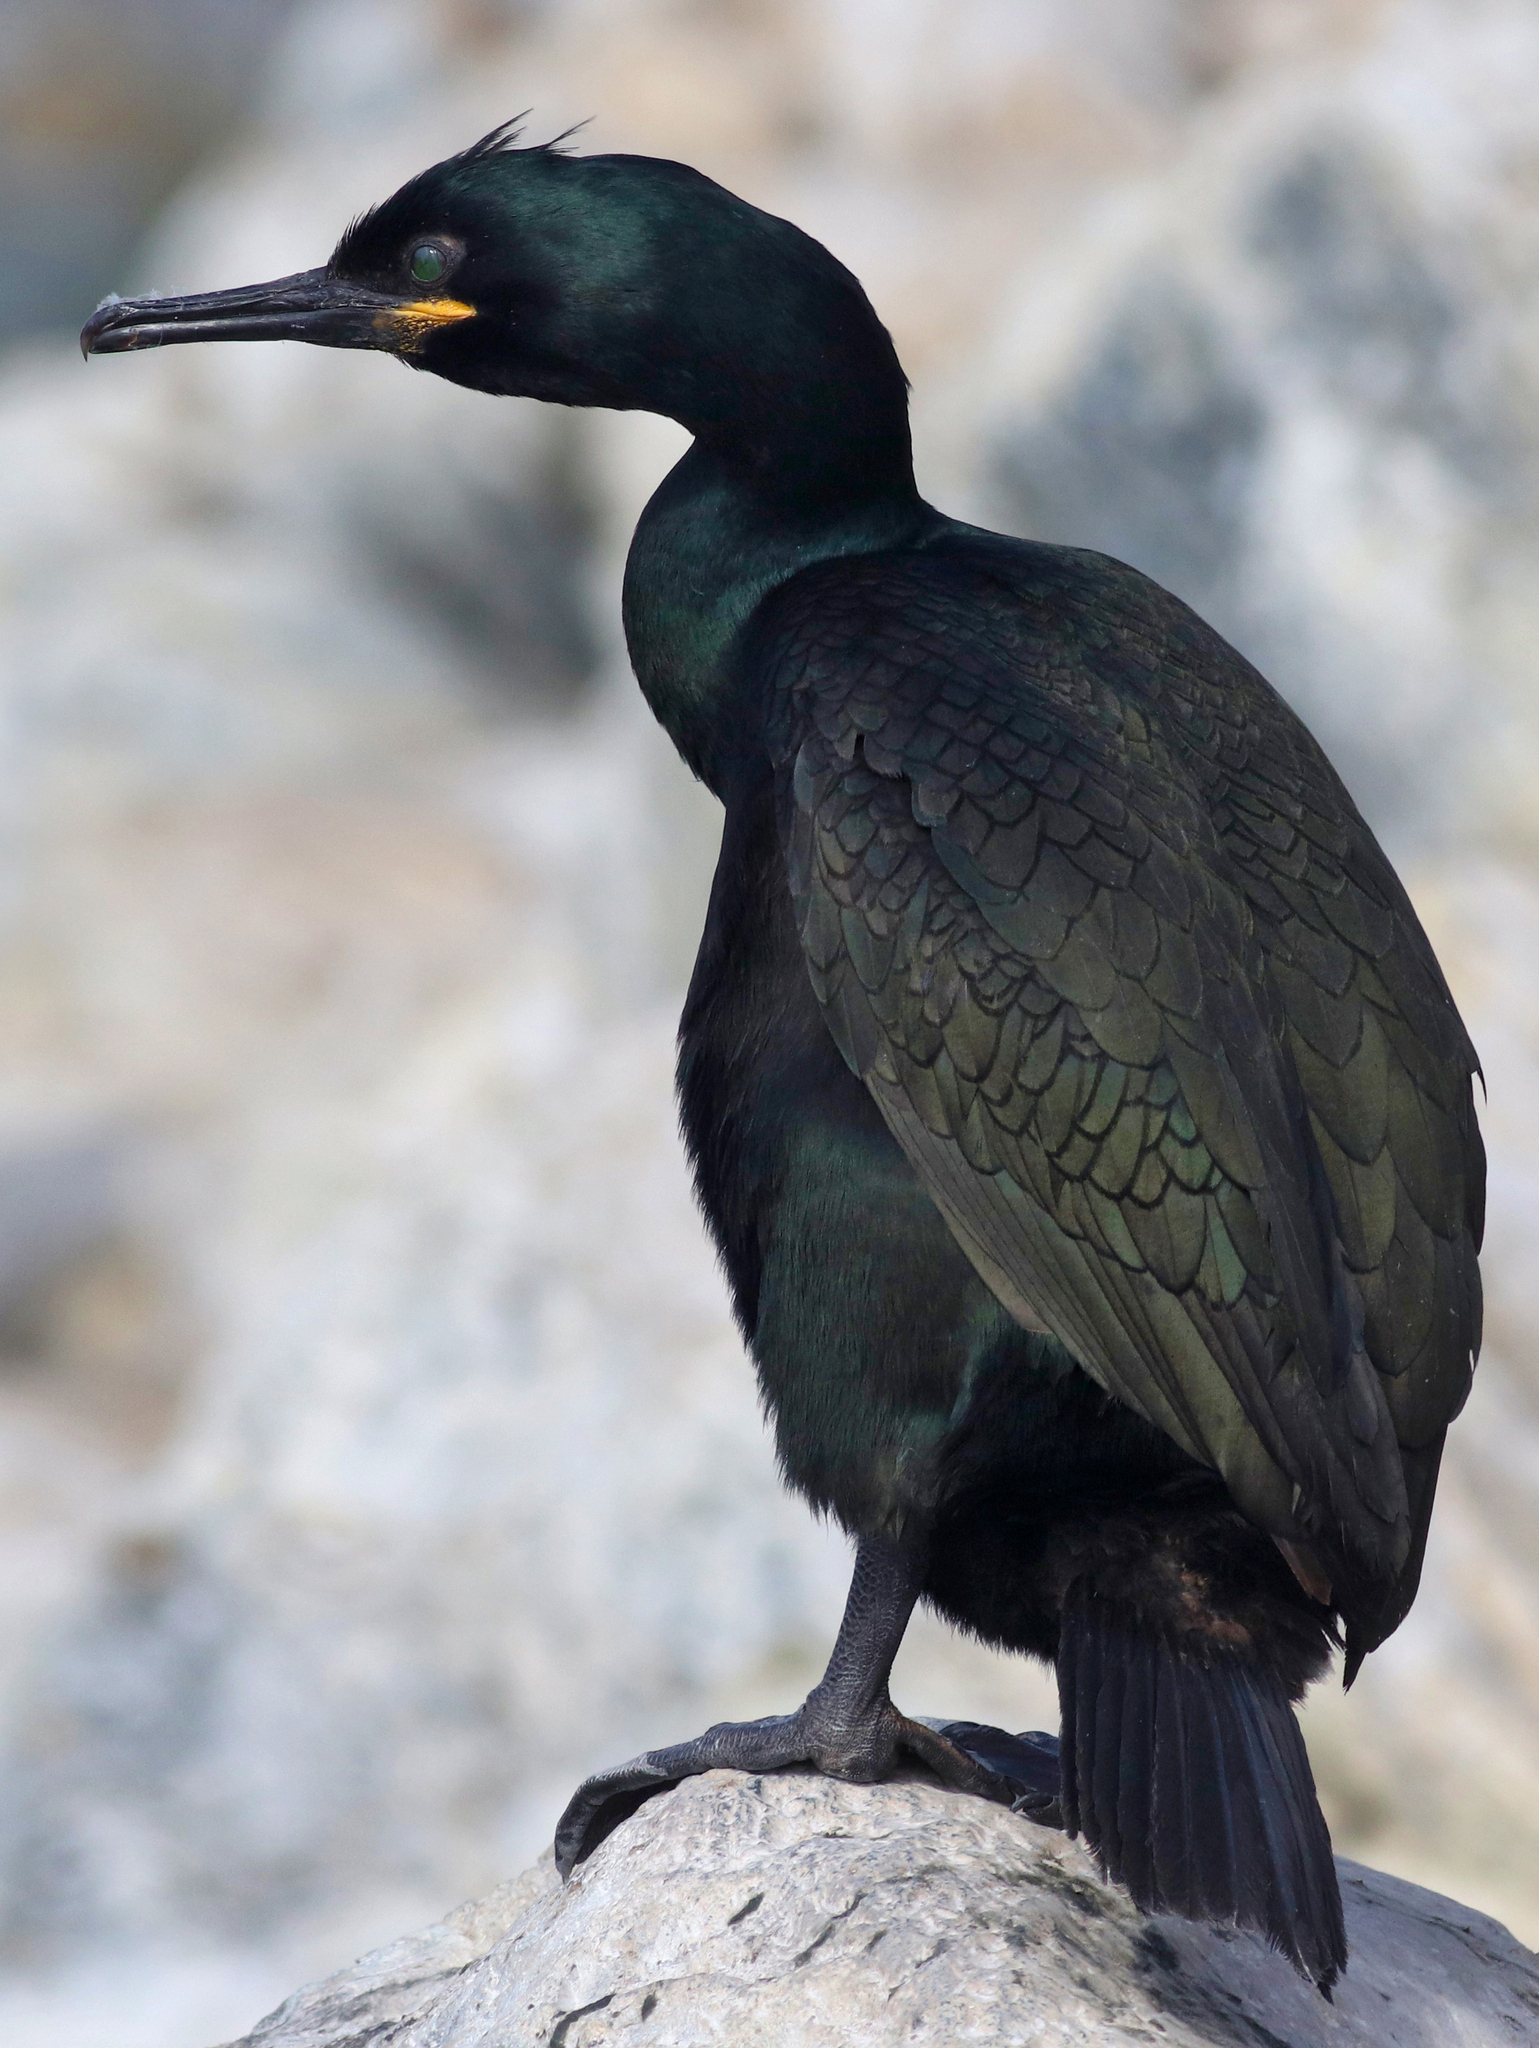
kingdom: Animalia
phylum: Chordata
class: Aves
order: Suliformes
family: Phalacrocoracidae
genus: Phalacrocorax
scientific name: Phalacrocorax aristotelis
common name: European shag
